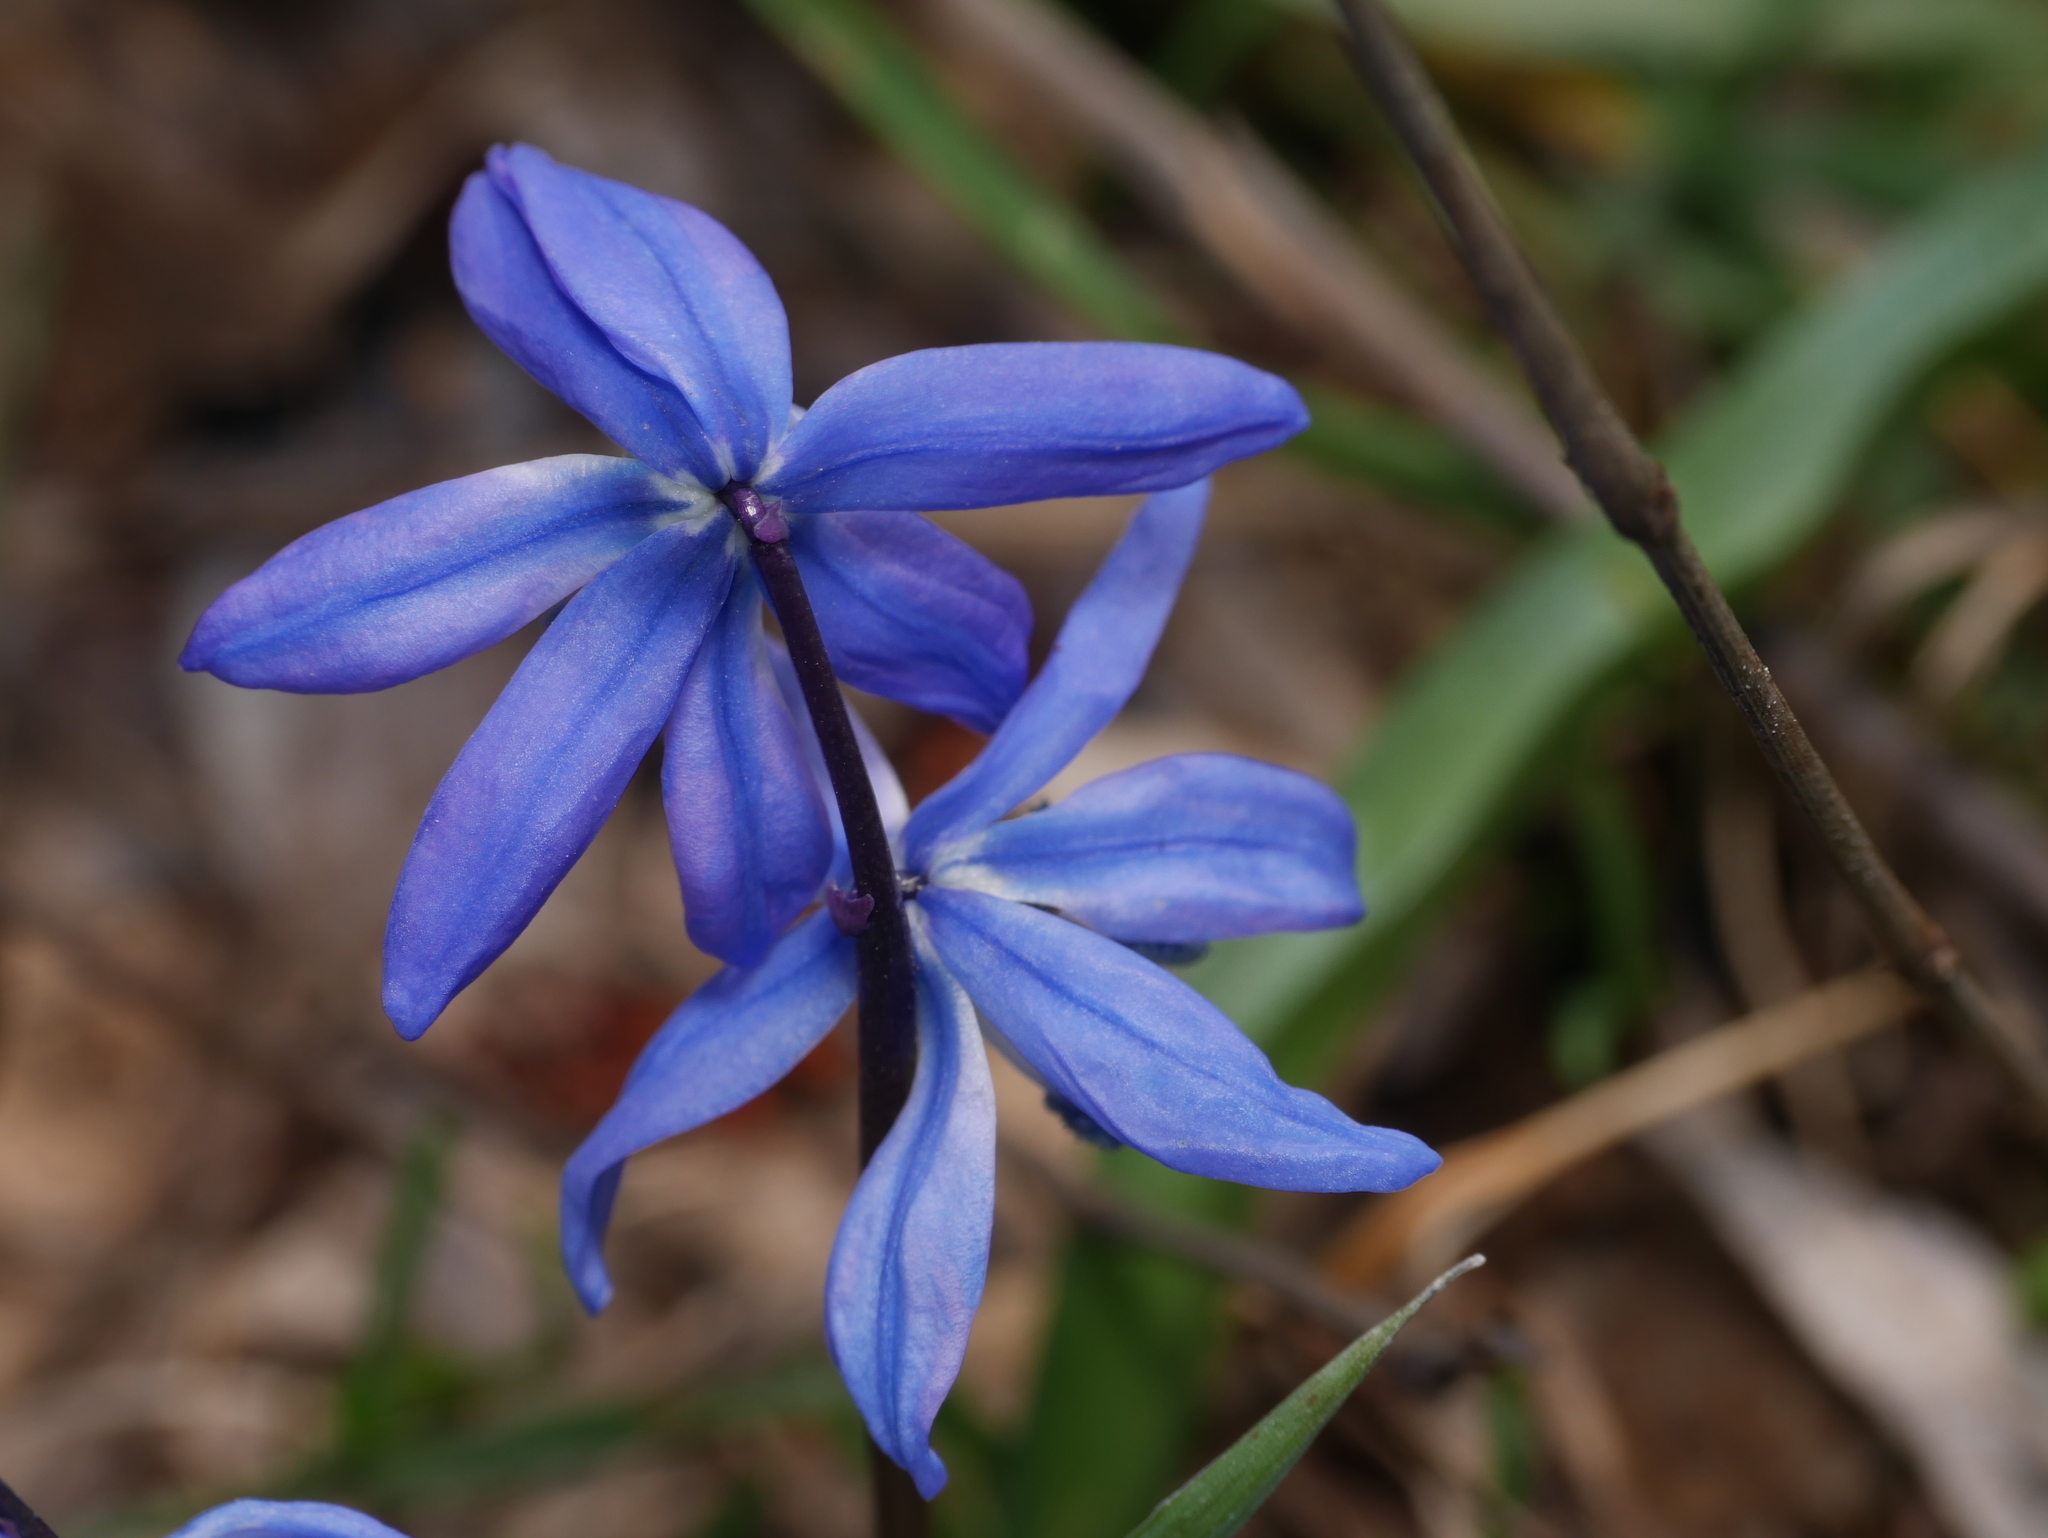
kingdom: Plantae
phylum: Tracheophyta
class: Liliopsida
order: Asparagales
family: Asparagaceae
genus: Scilla
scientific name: Scilla siberica
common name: Siberian squill
